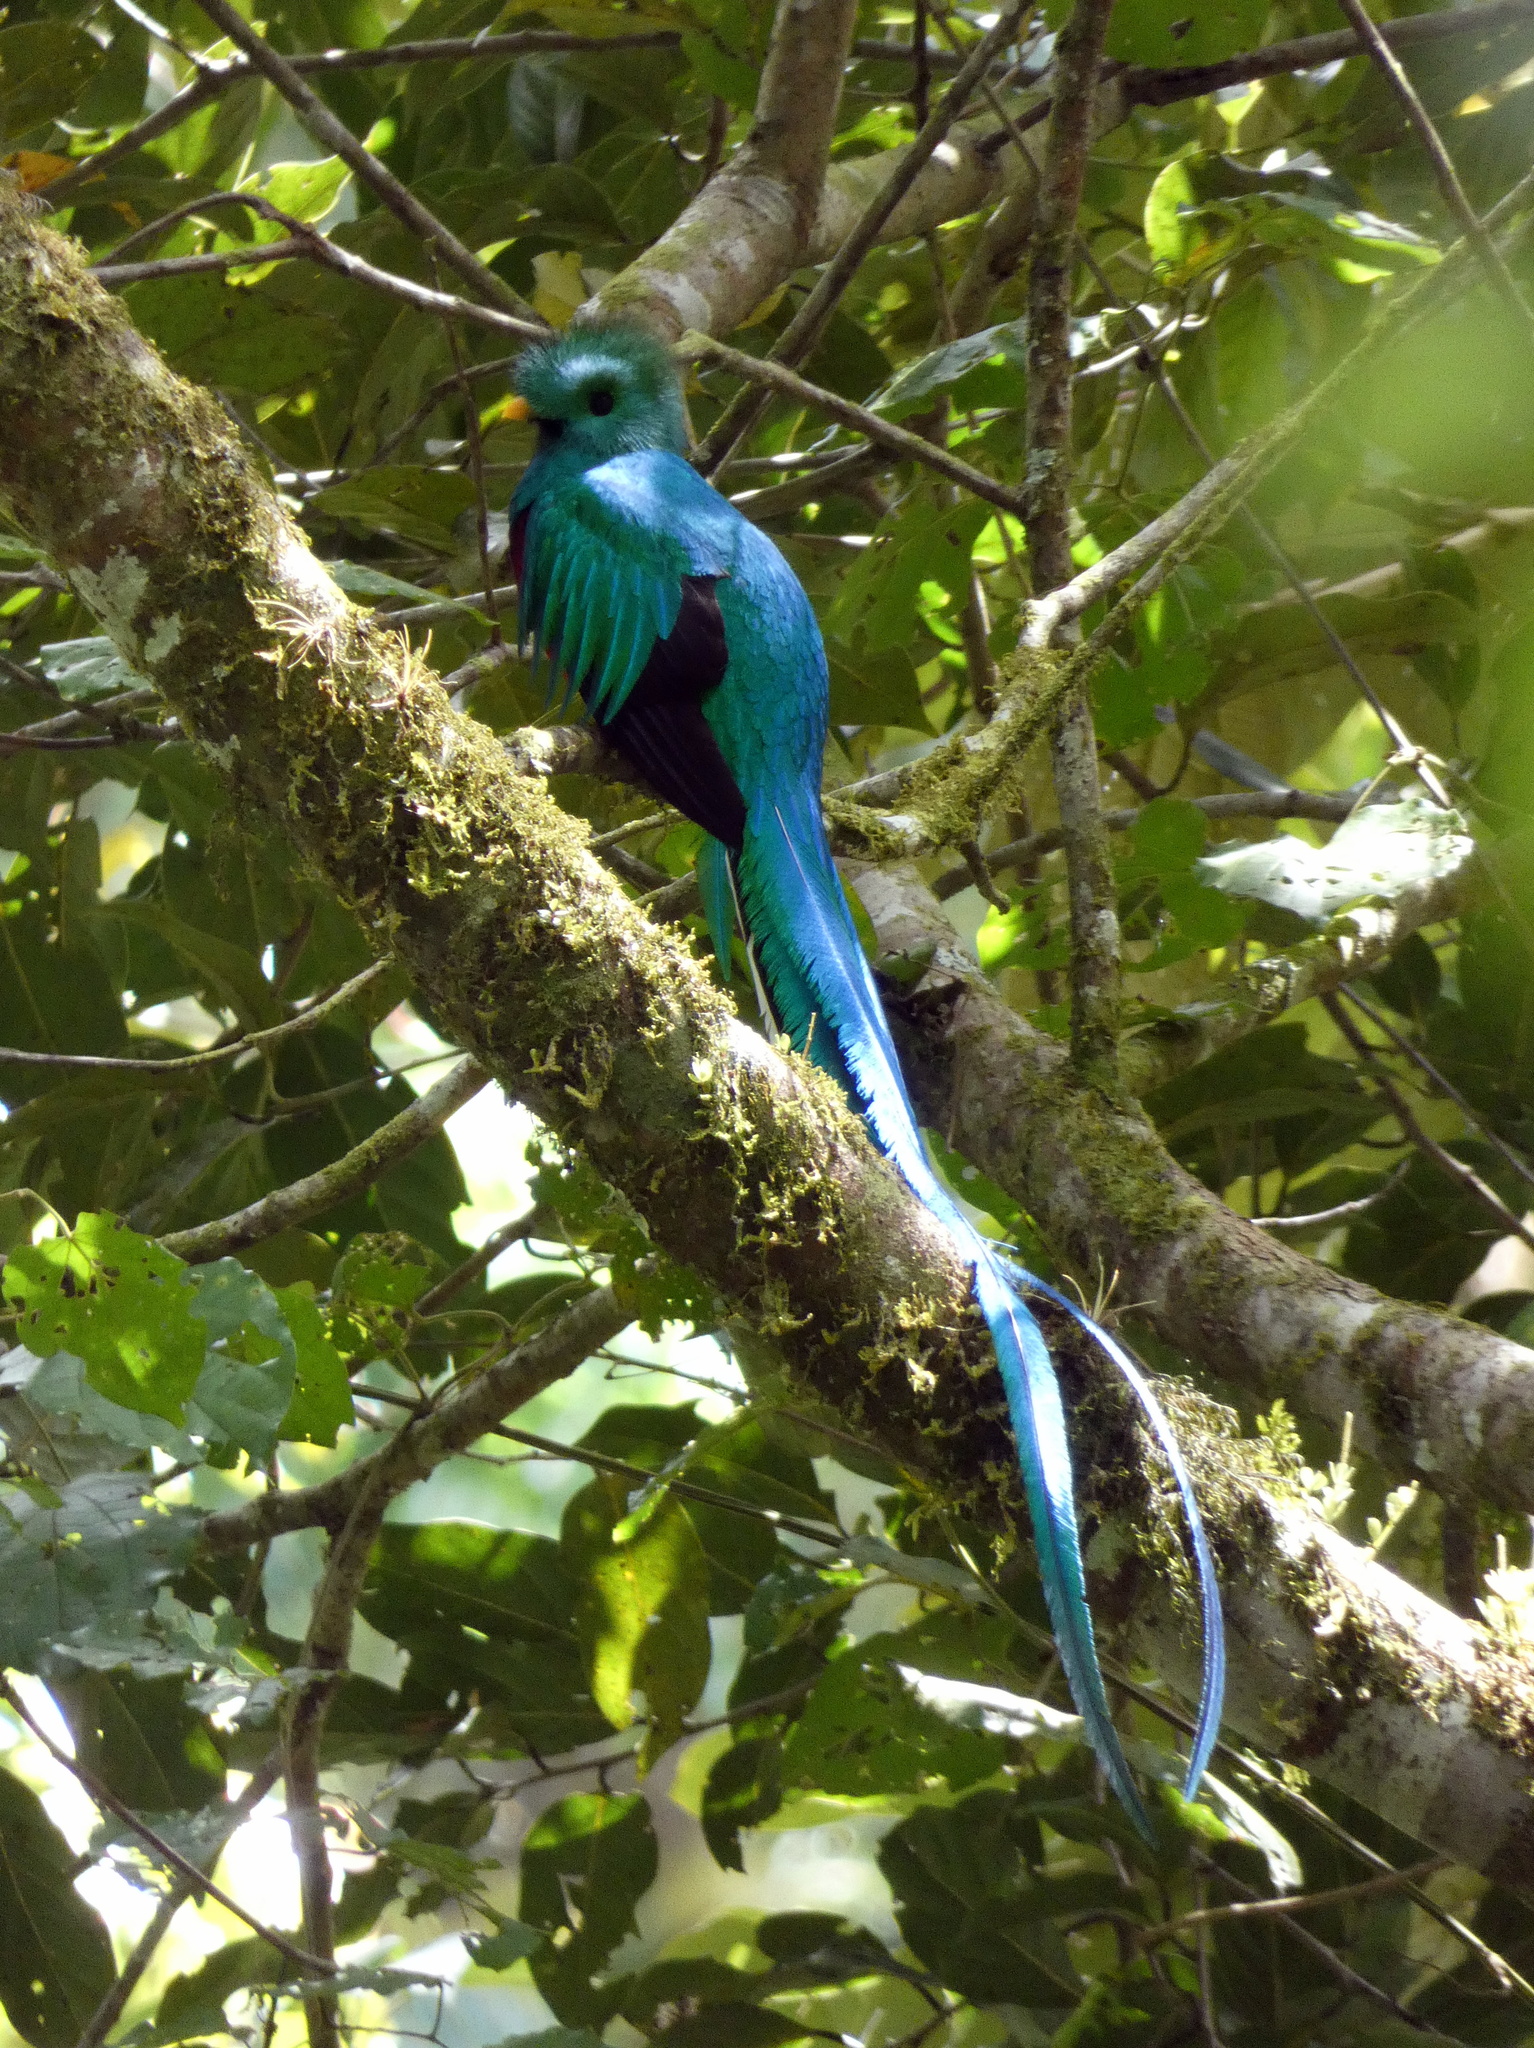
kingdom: Animalia
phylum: Chordata
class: Aves
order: Trogoniformes
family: Trogonidae
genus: Pharomachrus
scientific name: Pharomachrus mocinno
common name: Resplendent quetzal
